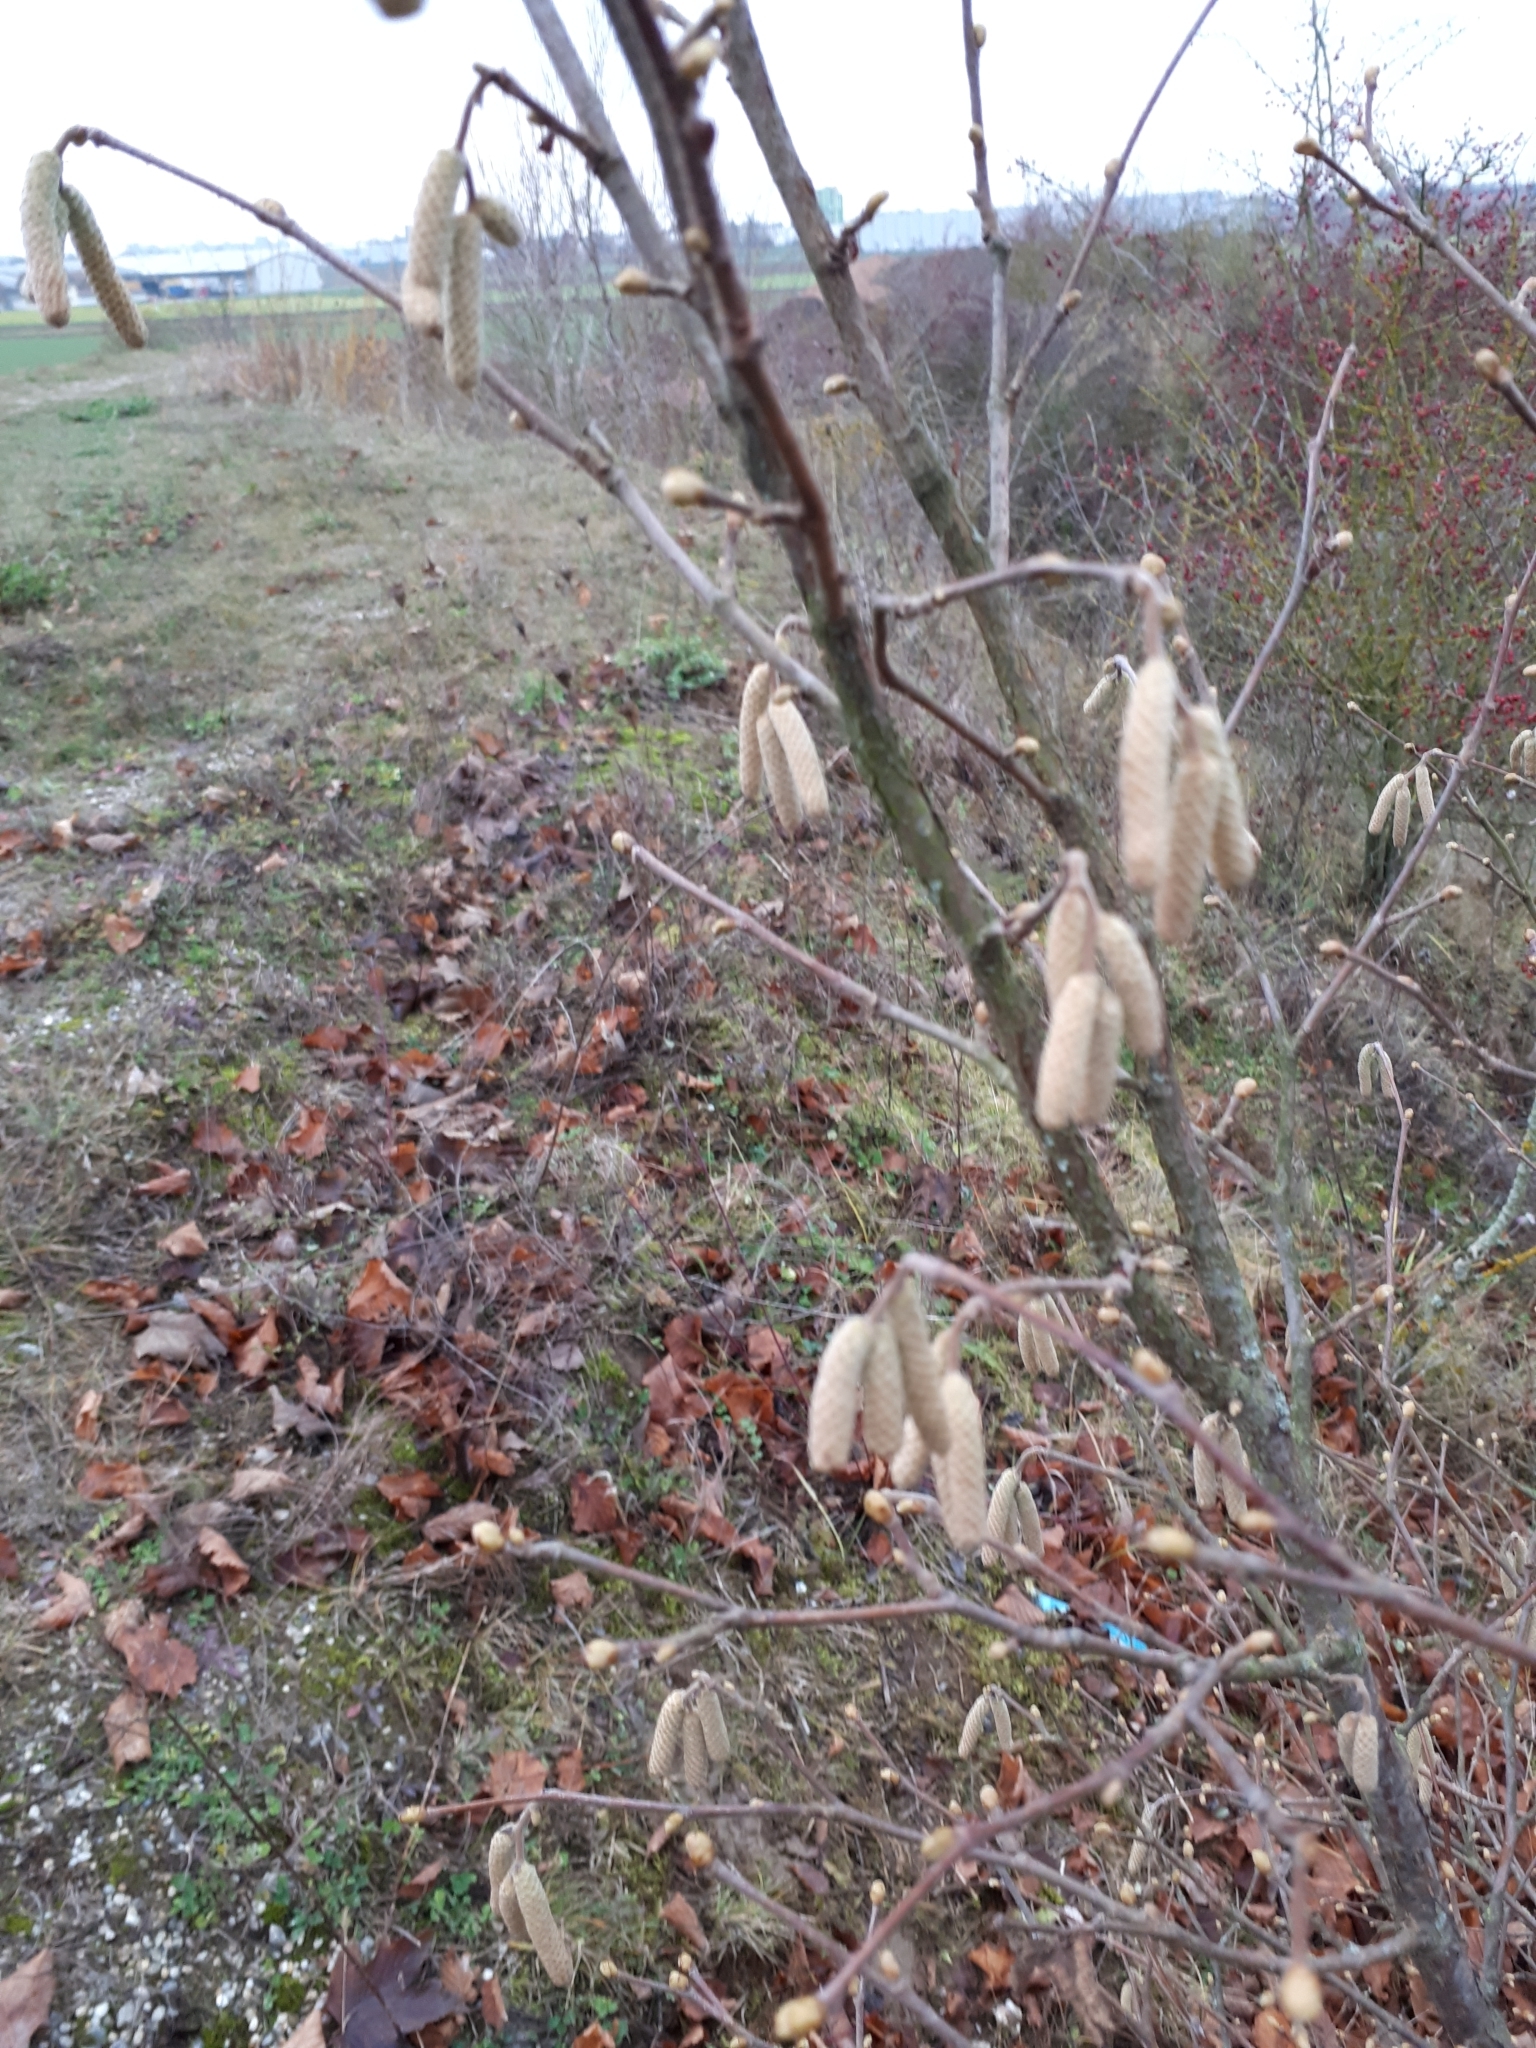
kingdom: Plantae
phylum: Tracheophyta
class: Magnoliopsida
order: Fagales
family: Betulaceae
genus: Corylus
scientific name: Corylus avellana
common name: European hazel
